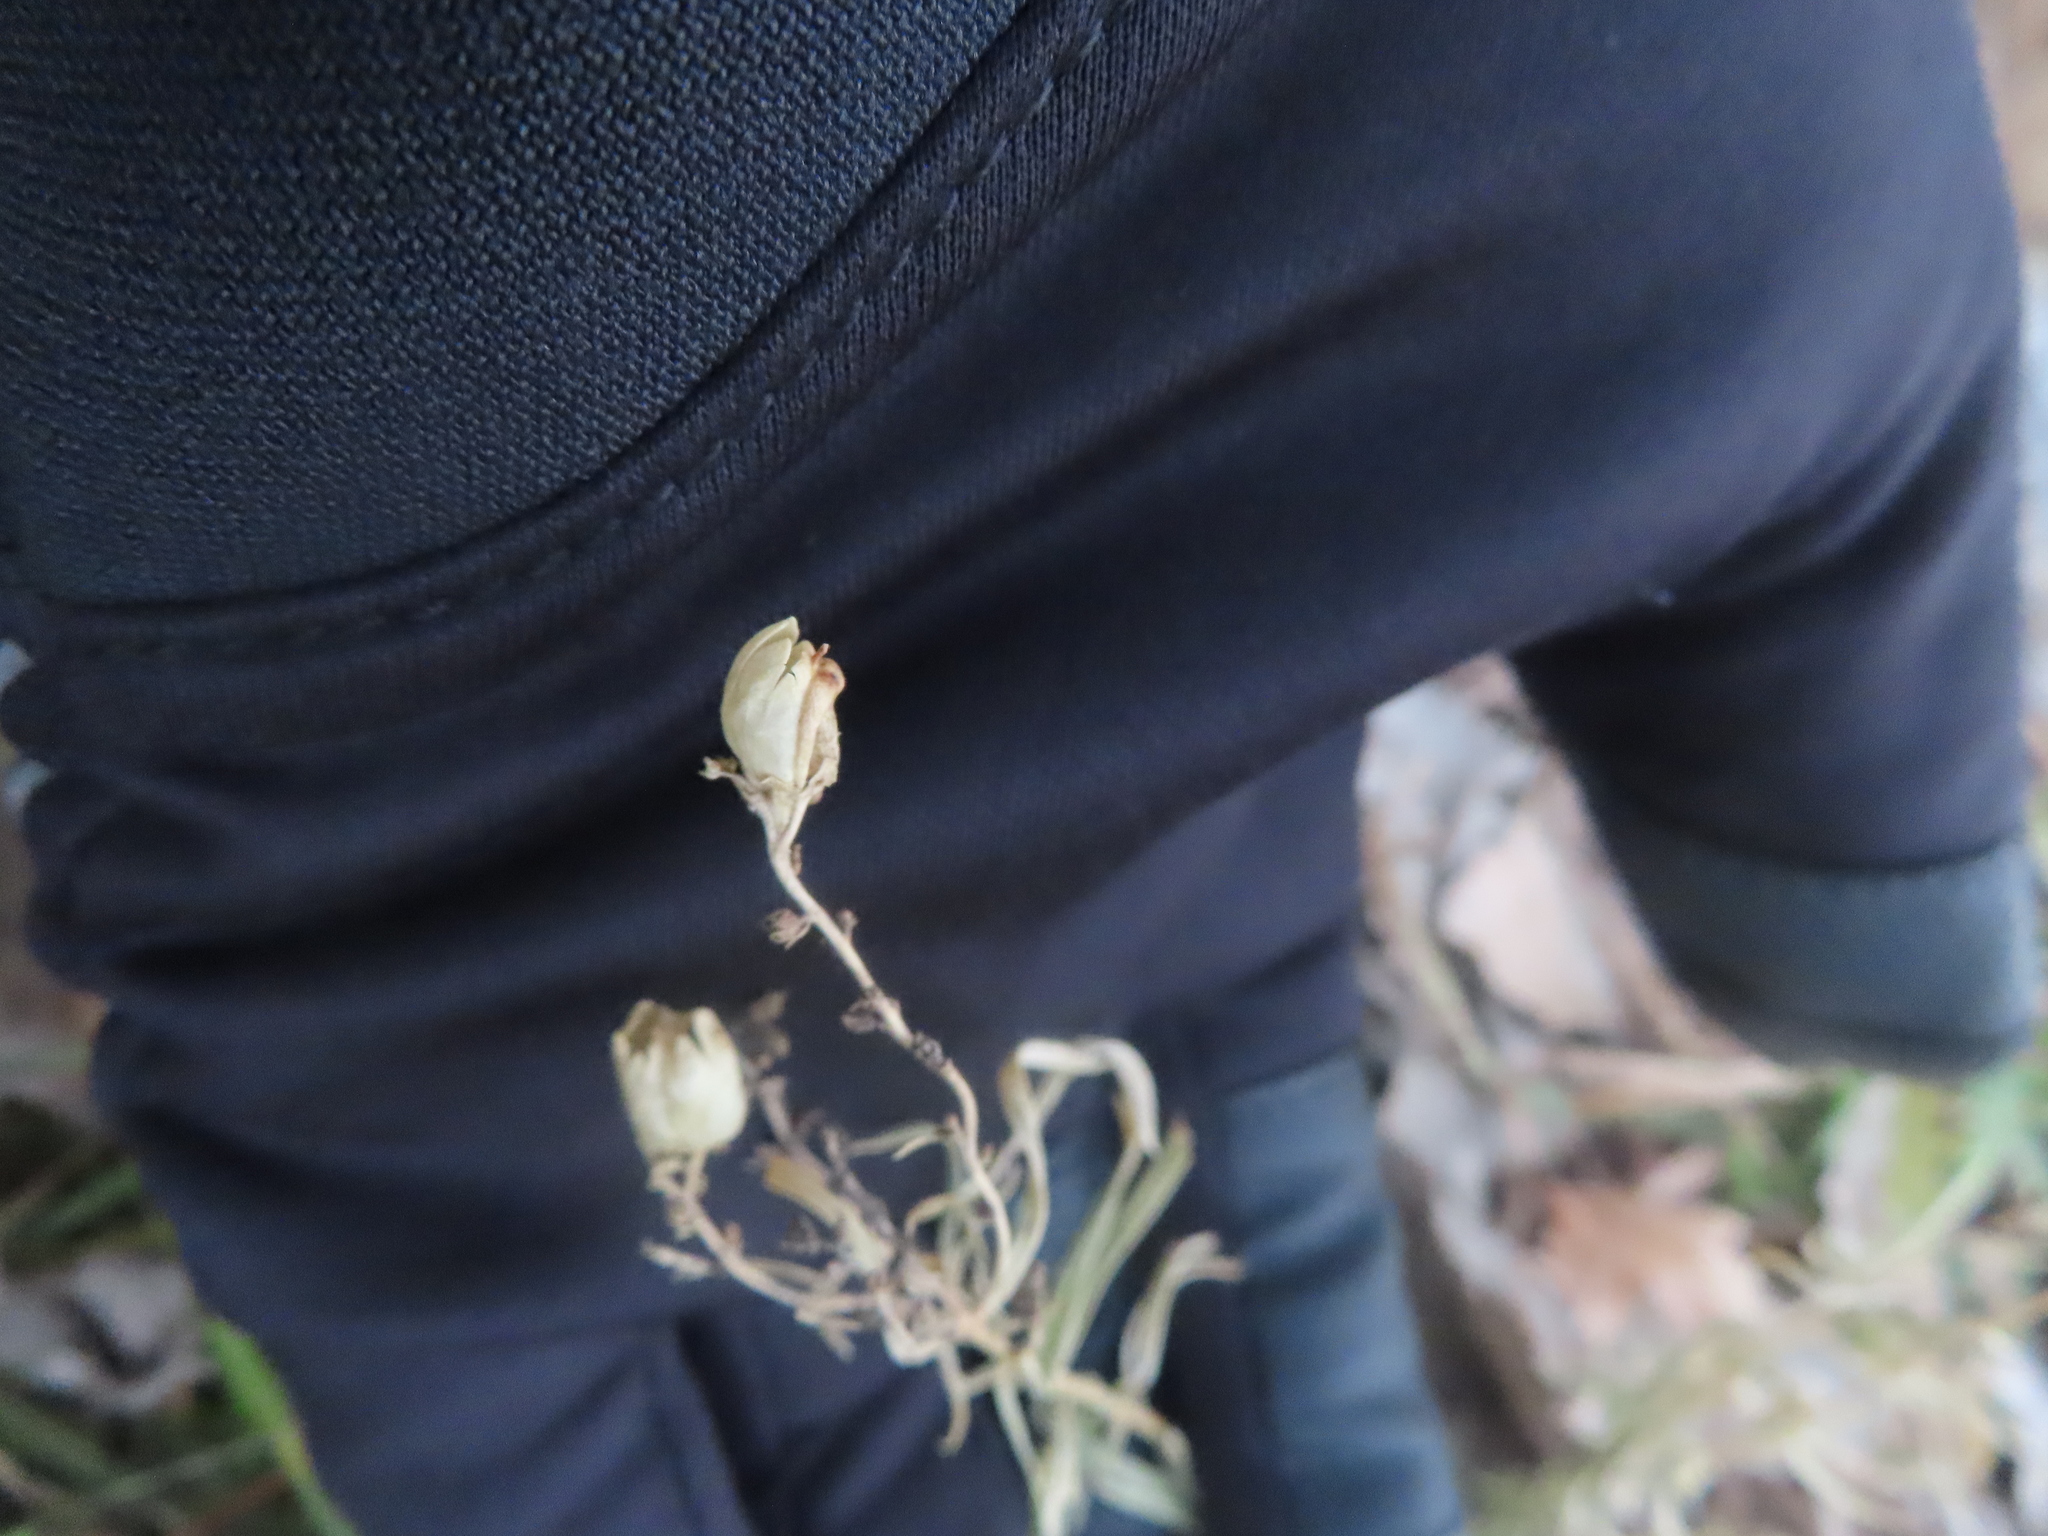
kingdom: Plantae
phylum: Tracheophyta
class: Magnoliopsida
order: Lamiales
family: Plantaginaceae
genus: Linaria
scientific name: Linaria vulgaris
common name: Butter and eggs
